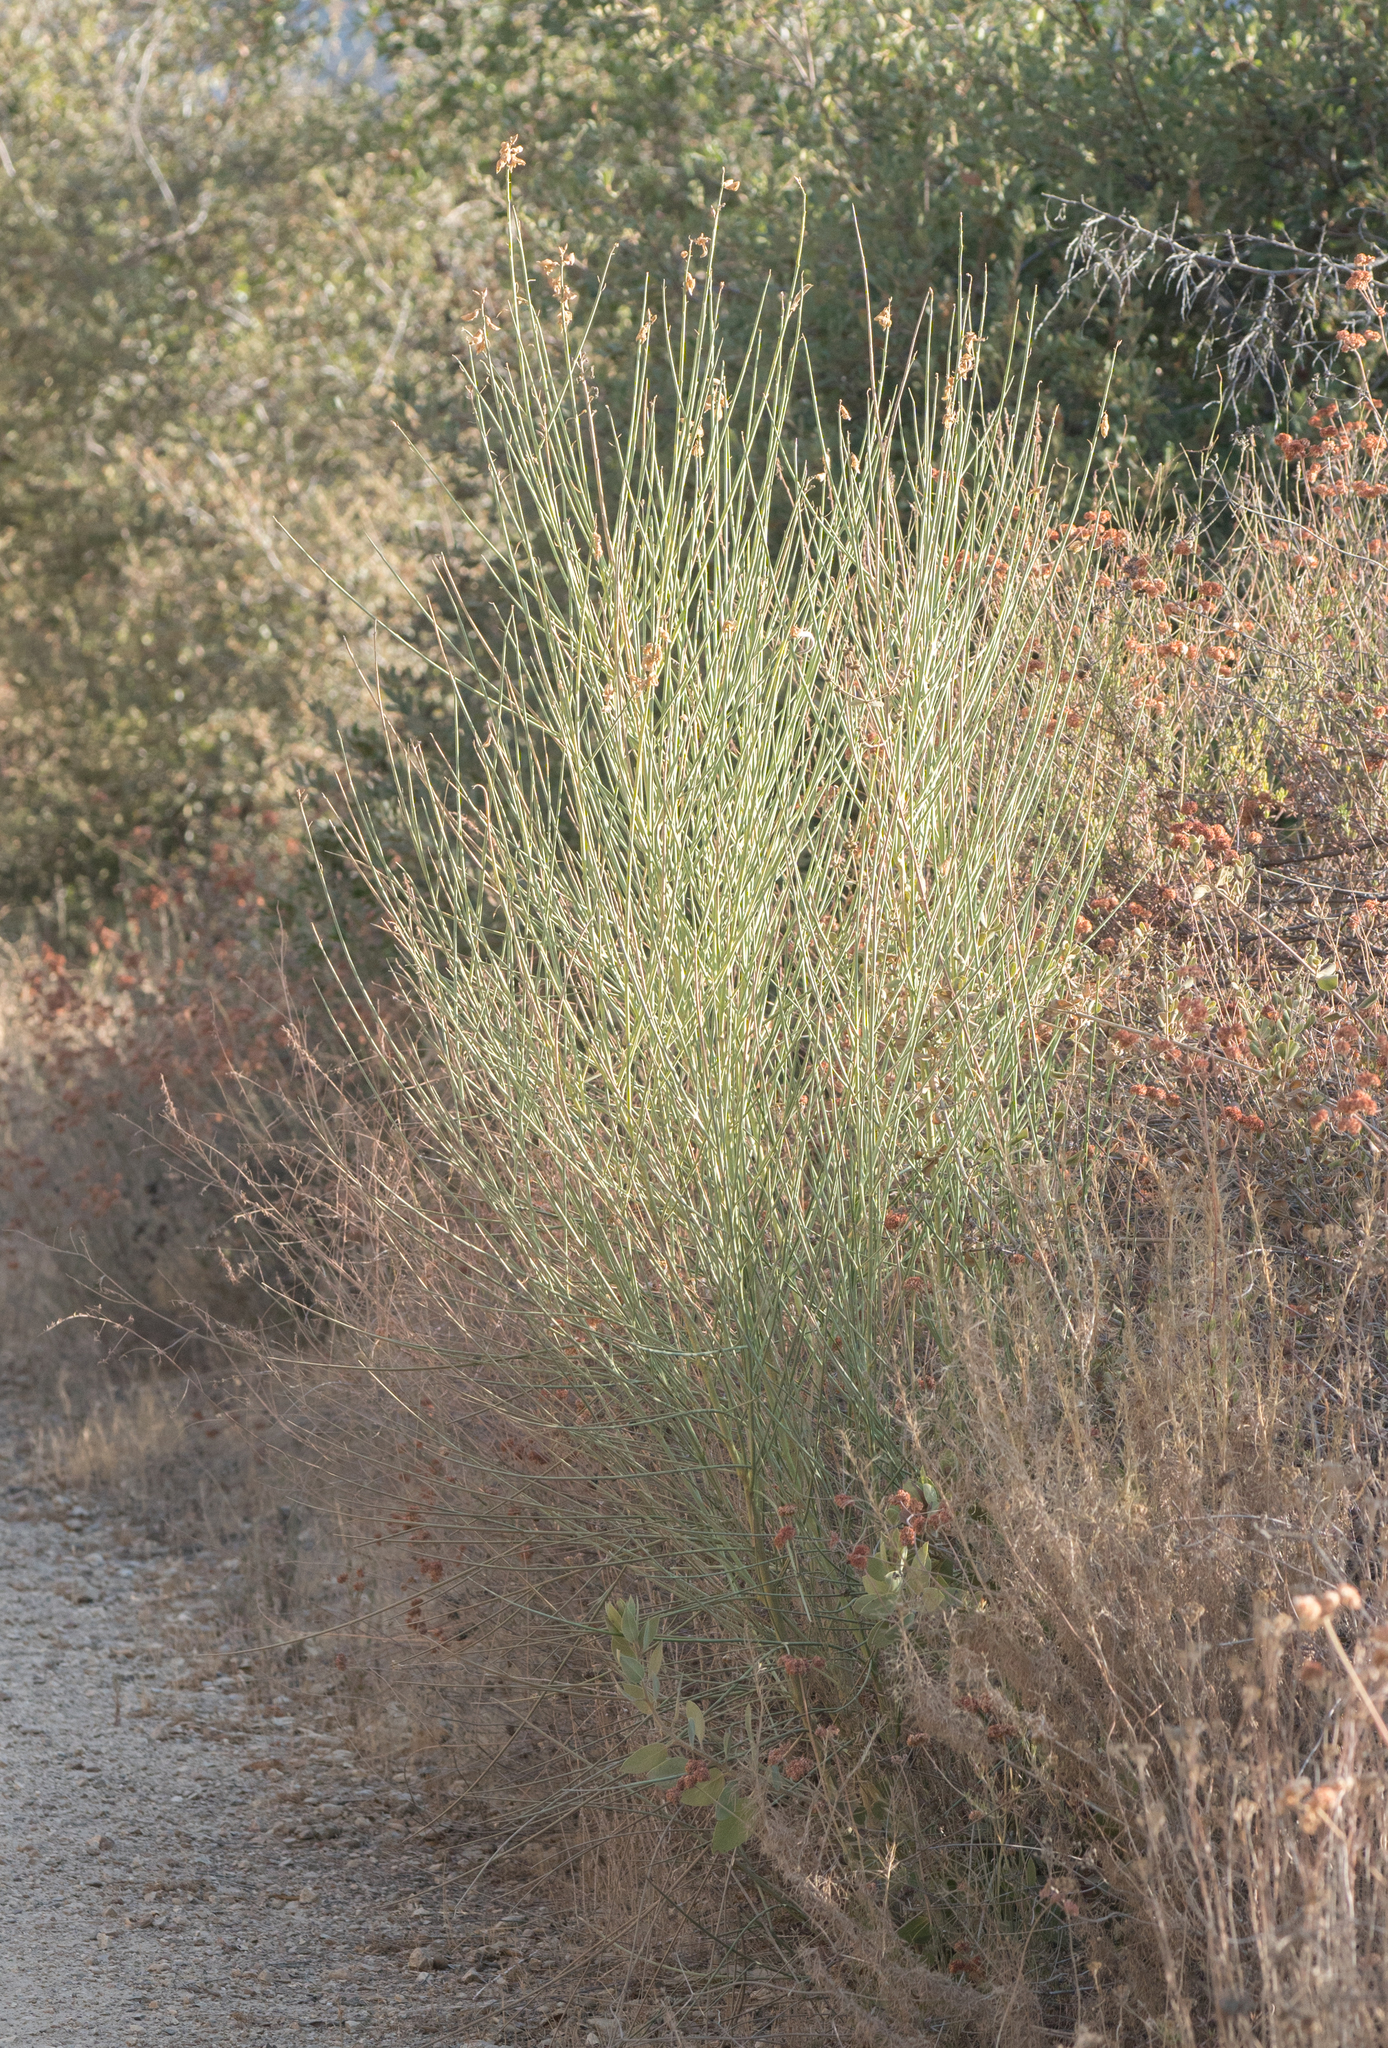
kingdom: Plantae
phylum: Tracheophyta
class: Magnoliopsida
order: Fabales
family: Fabaceae
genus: Spartium
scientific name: Spartium junceum
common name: Spanish broom
